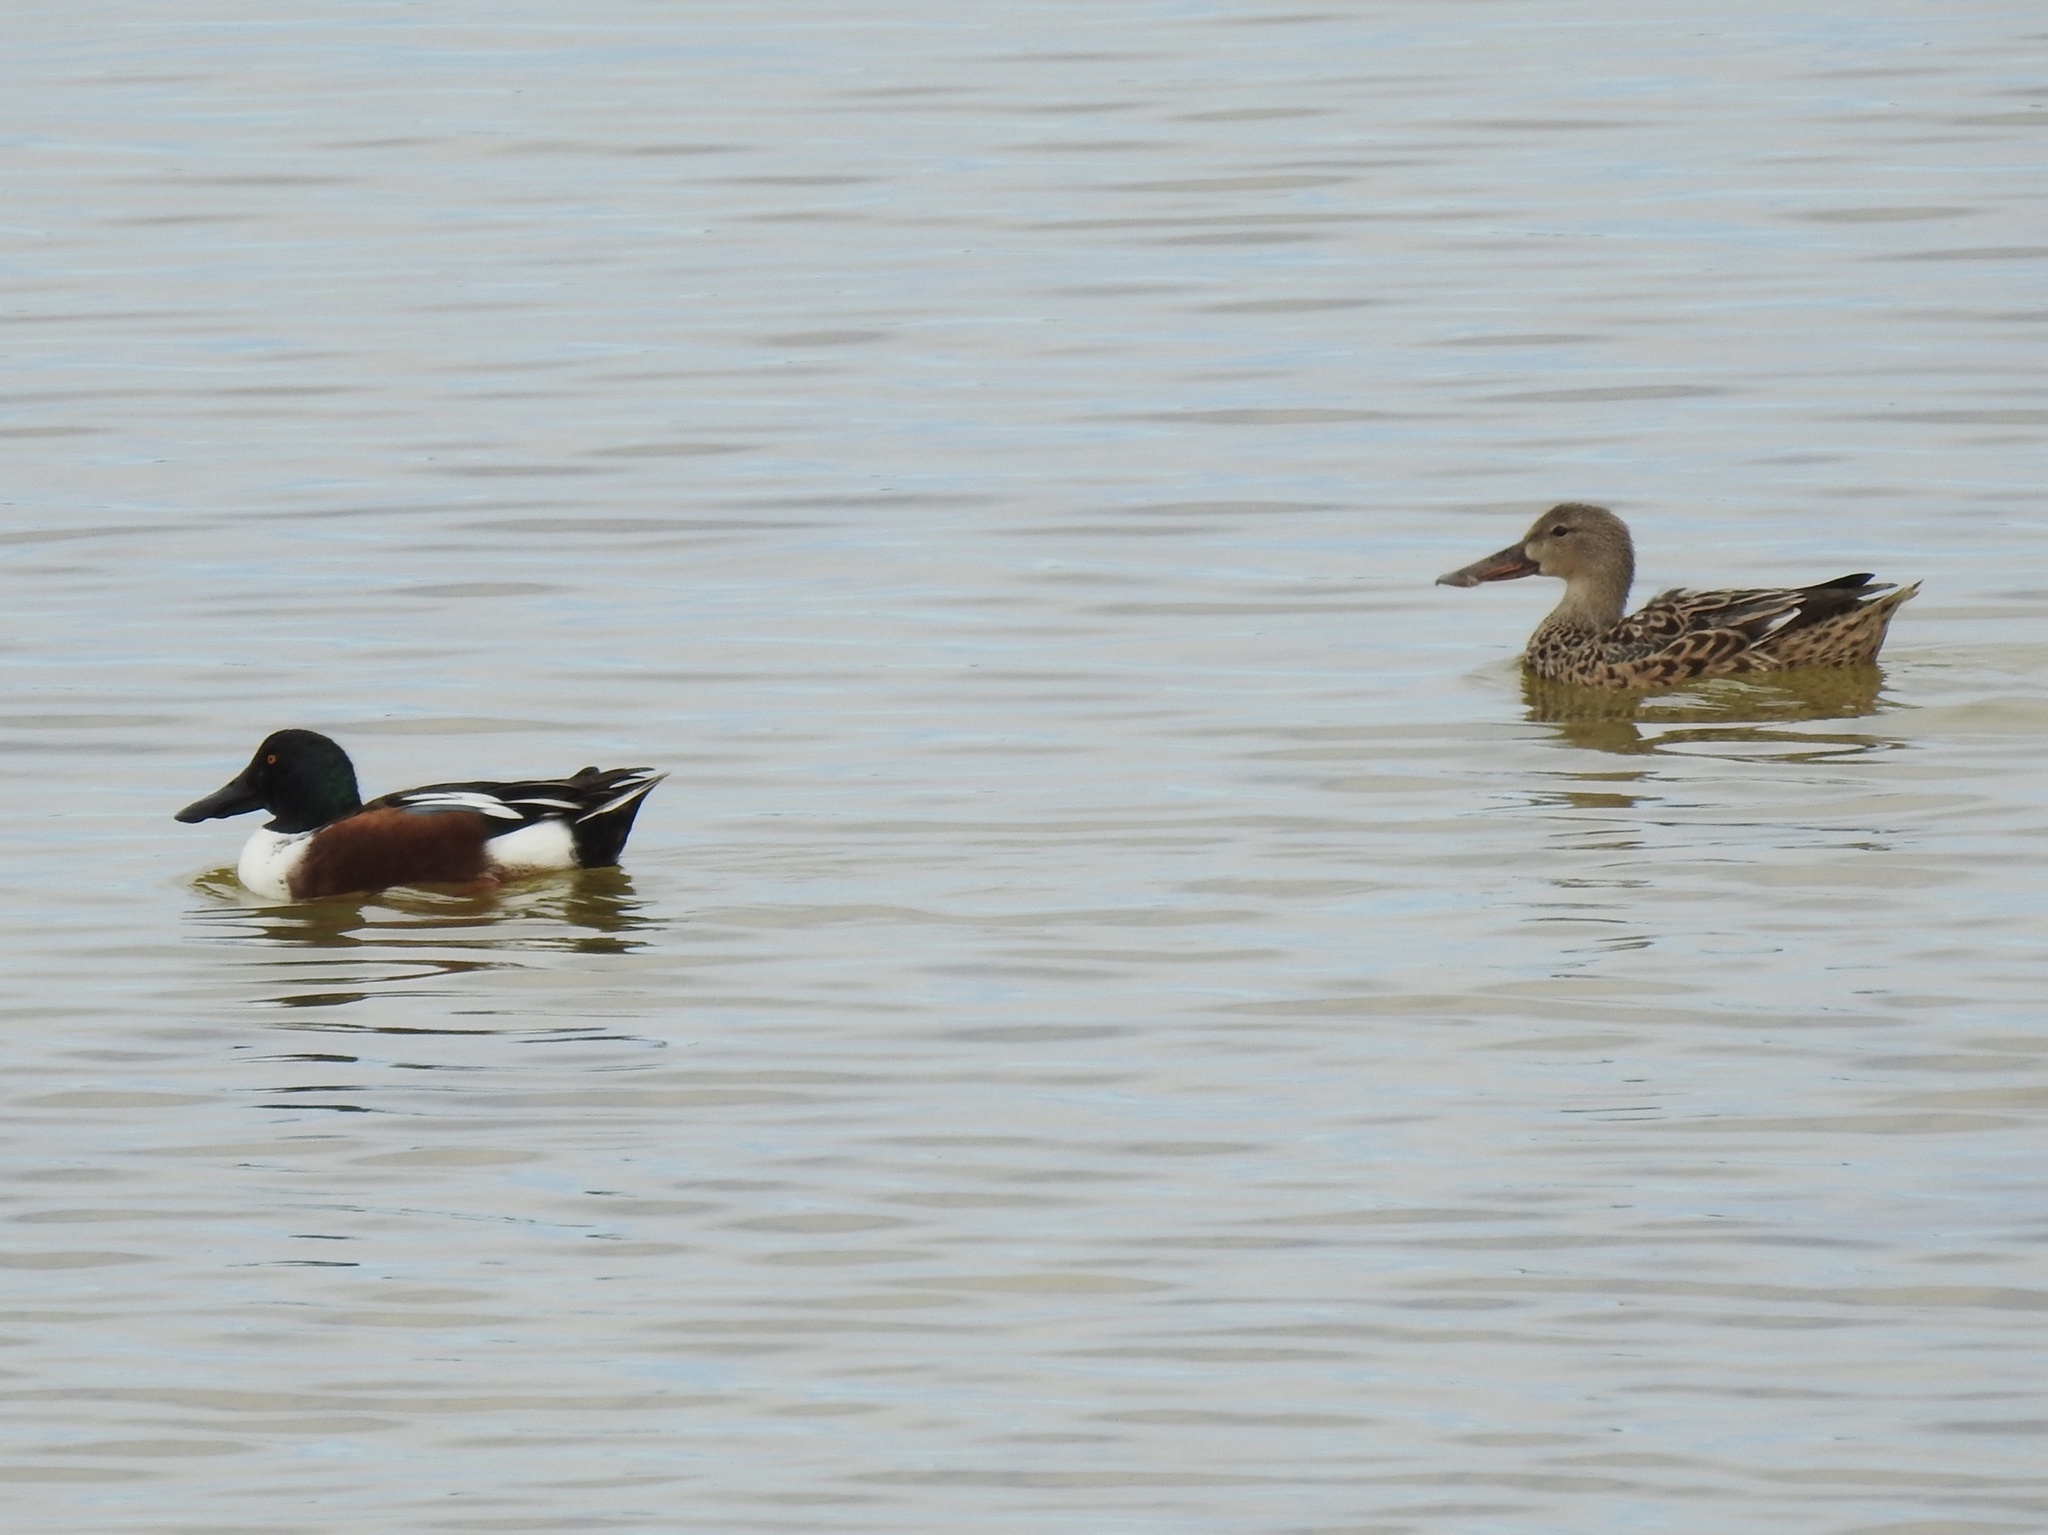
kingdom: Animalia
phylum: Chordata
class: Aves
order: Anseriformes
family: Anatidae
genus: Spatula
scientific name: Spatula clypeata
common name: Northern shoveler
